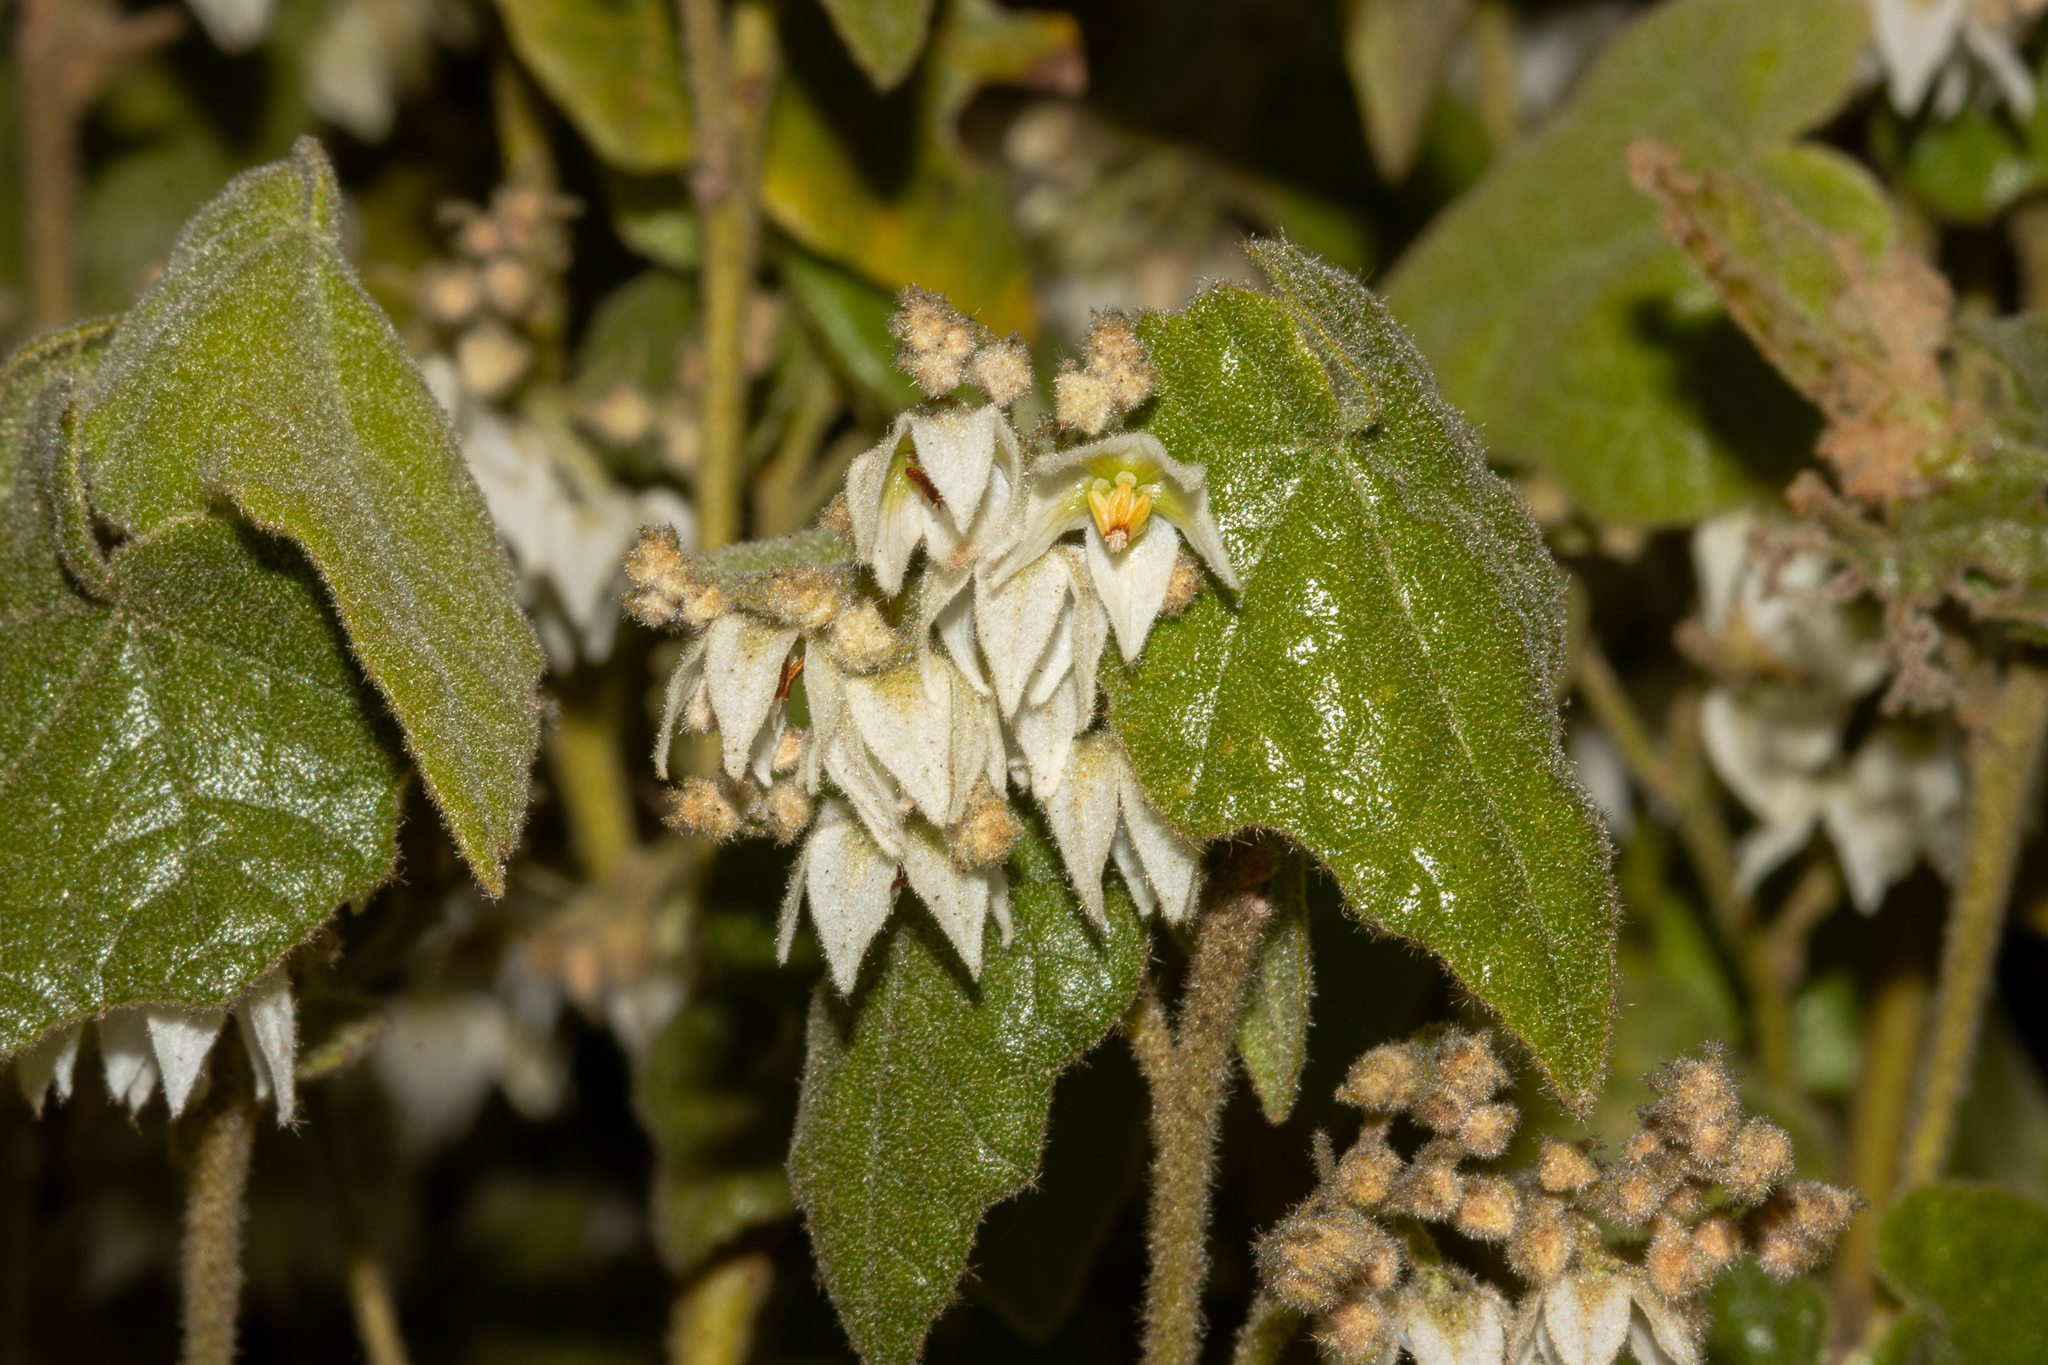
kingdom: Plantae
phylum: Tracheophyta
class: Magnoliopsida
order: Malvales
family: Malvaceae
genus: Lasiopetalum
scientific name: Lasiopetalum schulzenii
